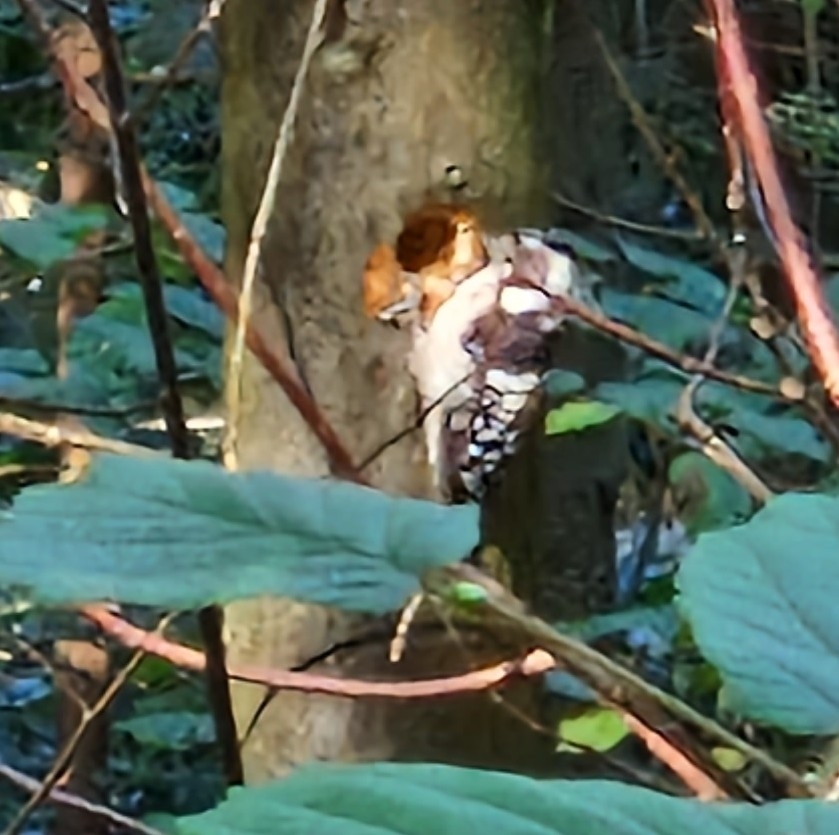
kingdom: Animalia
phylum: Chordata
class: Aves
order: Piciformes
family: Picidae
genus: Dryobates
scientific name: Dryobates minor
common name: Lesser spotted woodpecker
